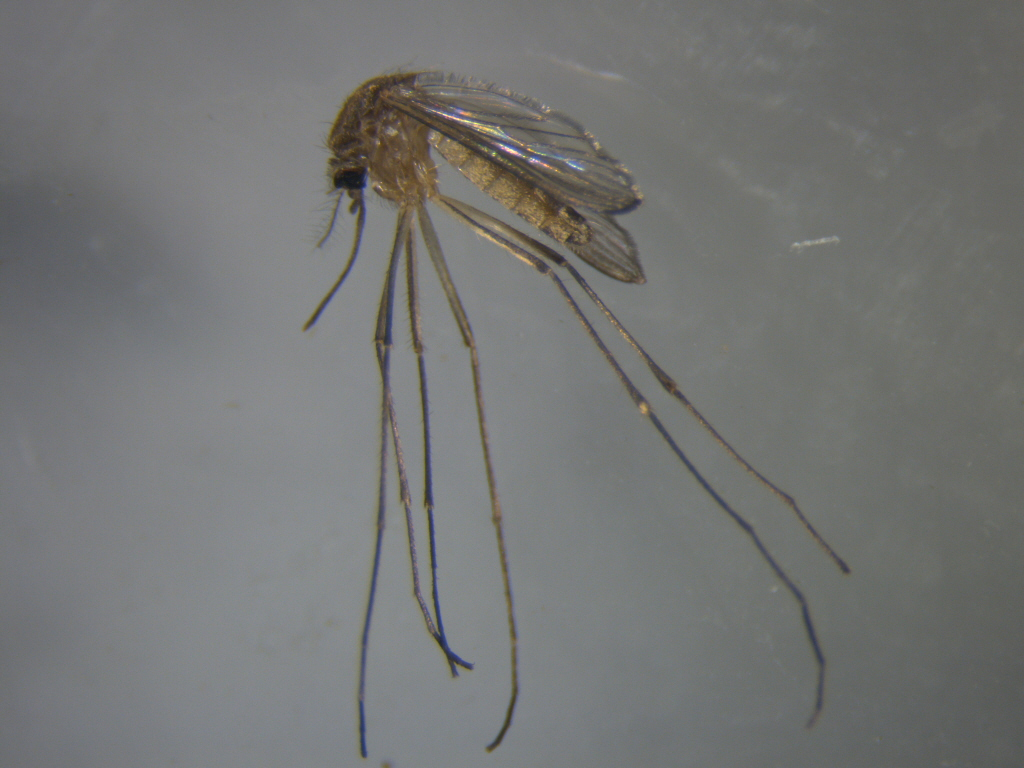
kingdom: Animalia
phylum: Arthropoda
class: Insecta
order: Diptera
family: Culicidae
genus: Culex
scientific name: Culex quinquefasciatus
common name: Southern house mosquito
